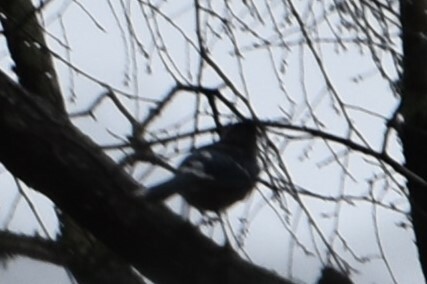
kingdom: Animalia
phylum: Chordata
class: Aves
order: Passeriformes
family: Corvidae
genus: Cyanocitta
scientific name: Cyanocitta cristata
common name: Blue jay
